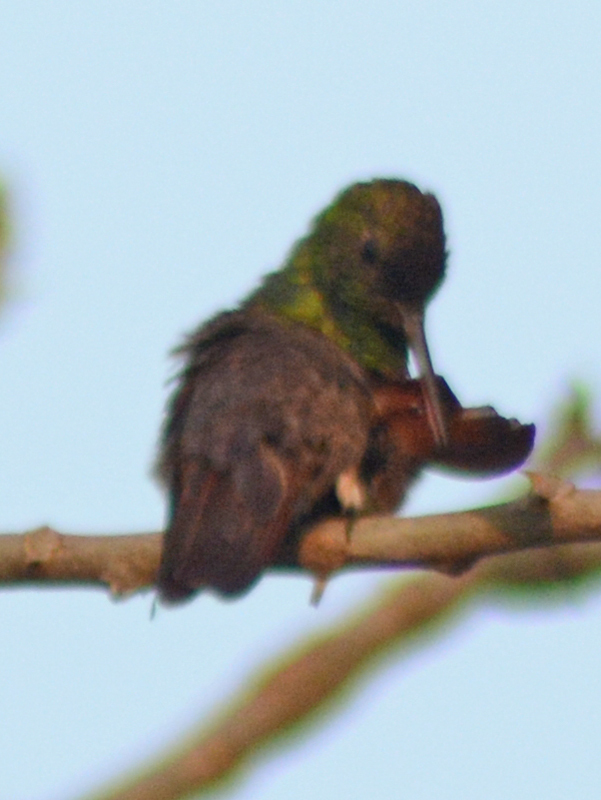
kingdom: Animalia
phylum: Chordata
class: Aves
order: Apodiformes
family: Trochilidae
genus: Saucerottia
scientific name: Saucerottia beryllina
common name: Berylline hummingbird
